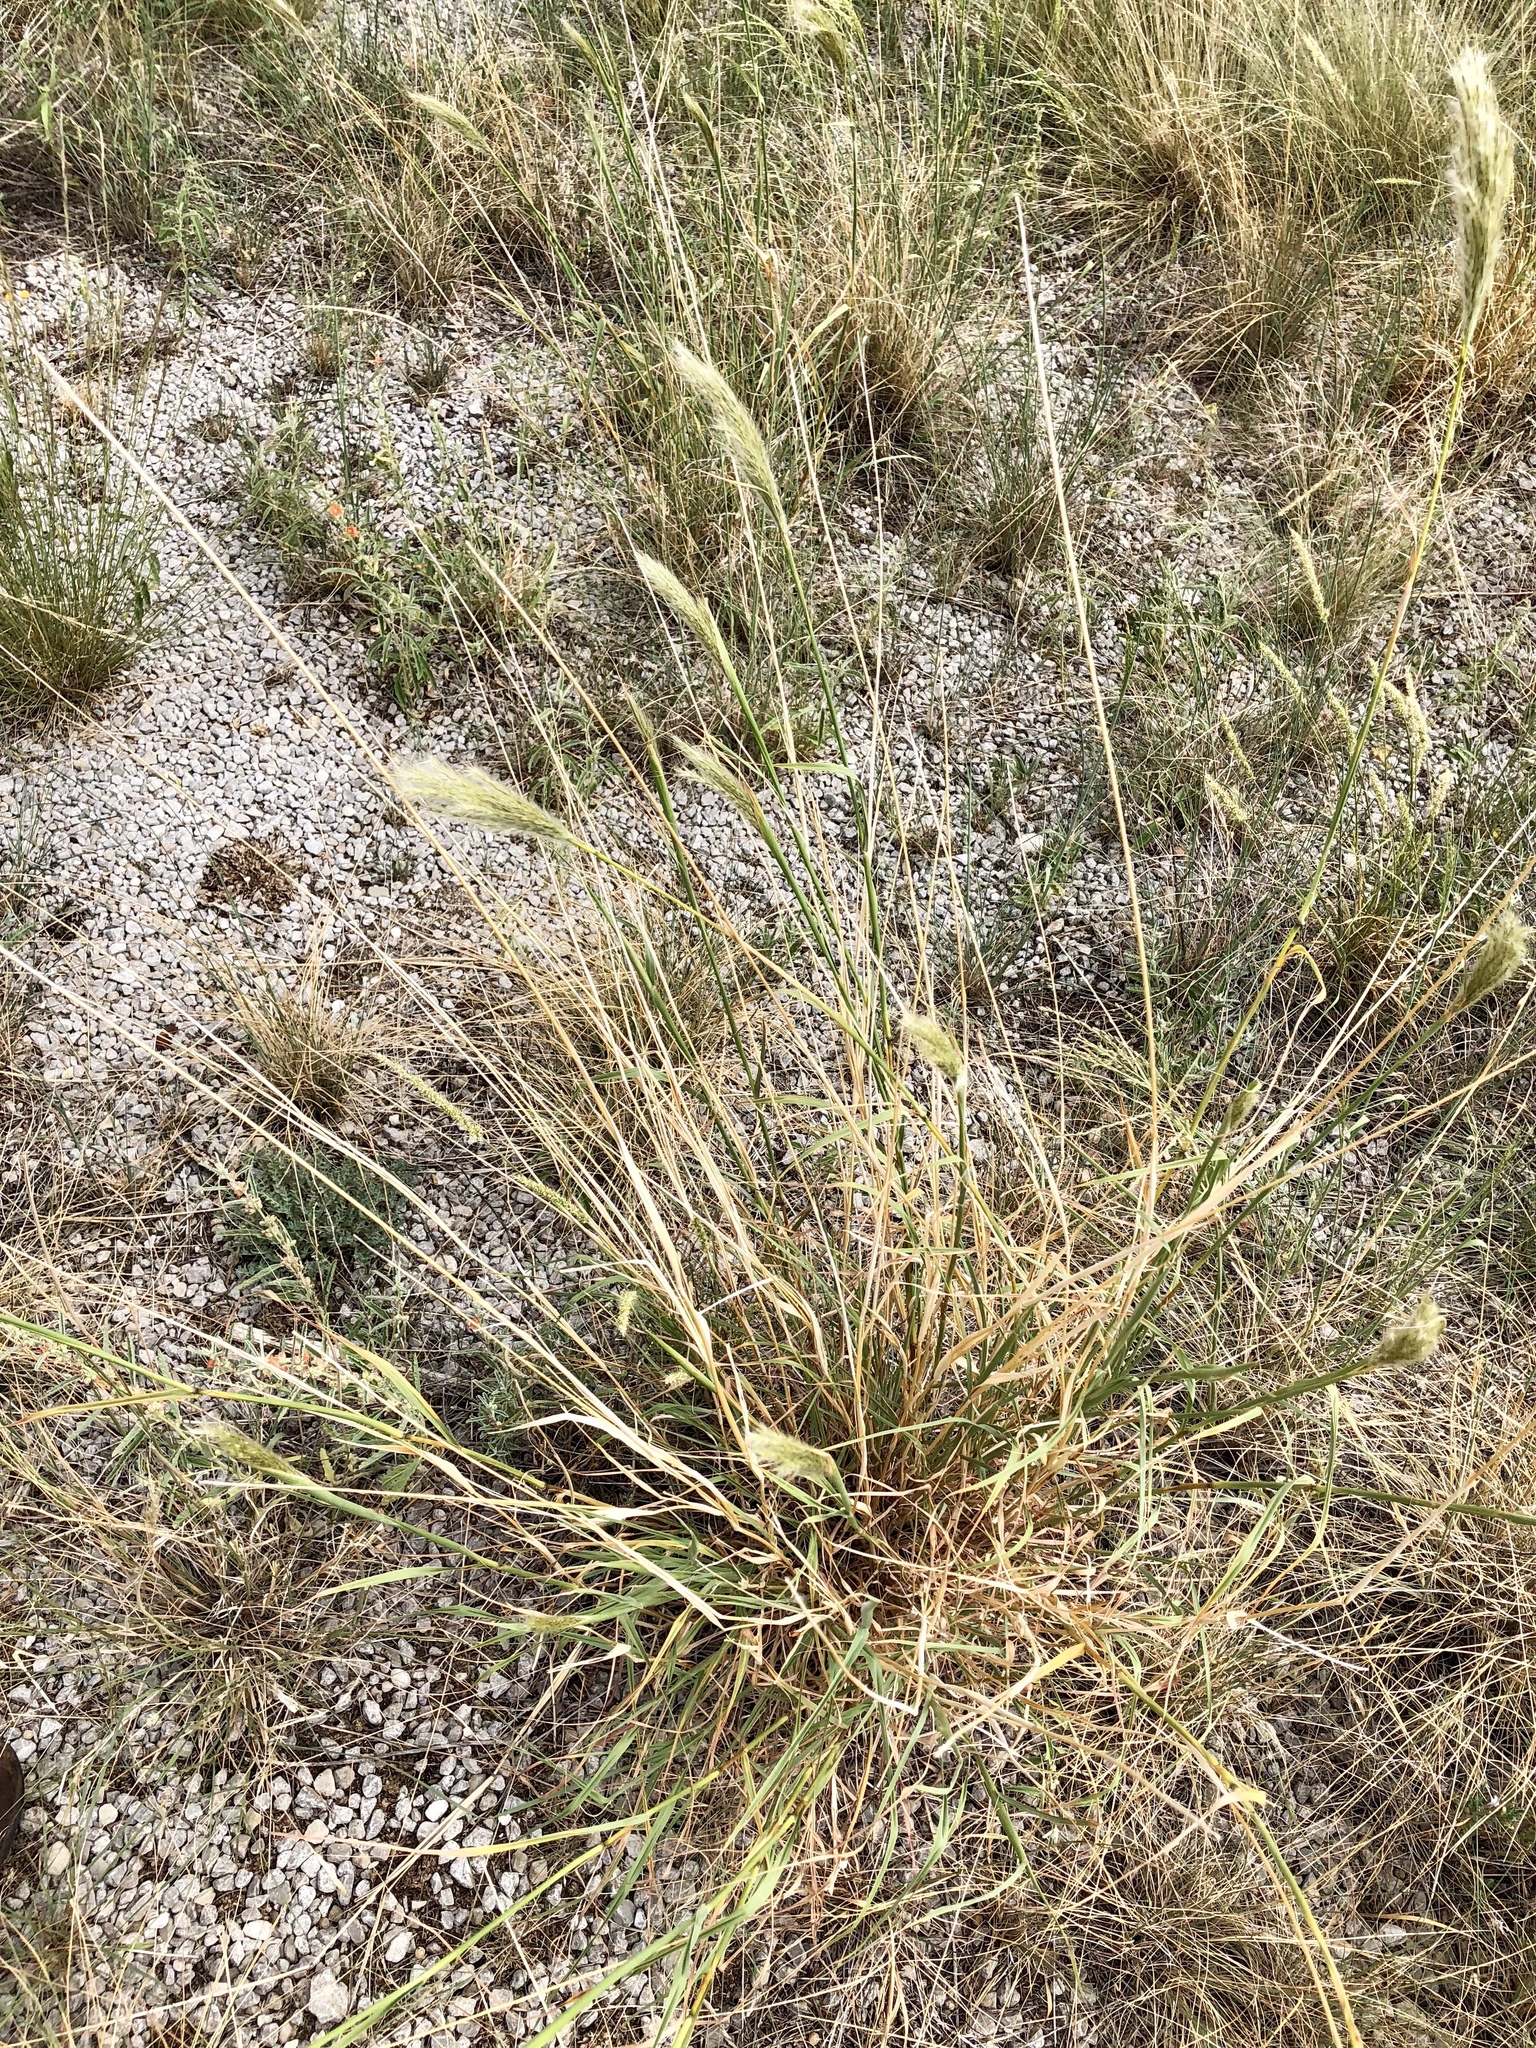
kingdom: Plantae
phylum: Tracheophyta
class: Liliopsida
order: Poales
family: Poaceae
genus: Bothriochloa
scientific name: Bothriochloa barbinodis
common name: Cane bluestem
